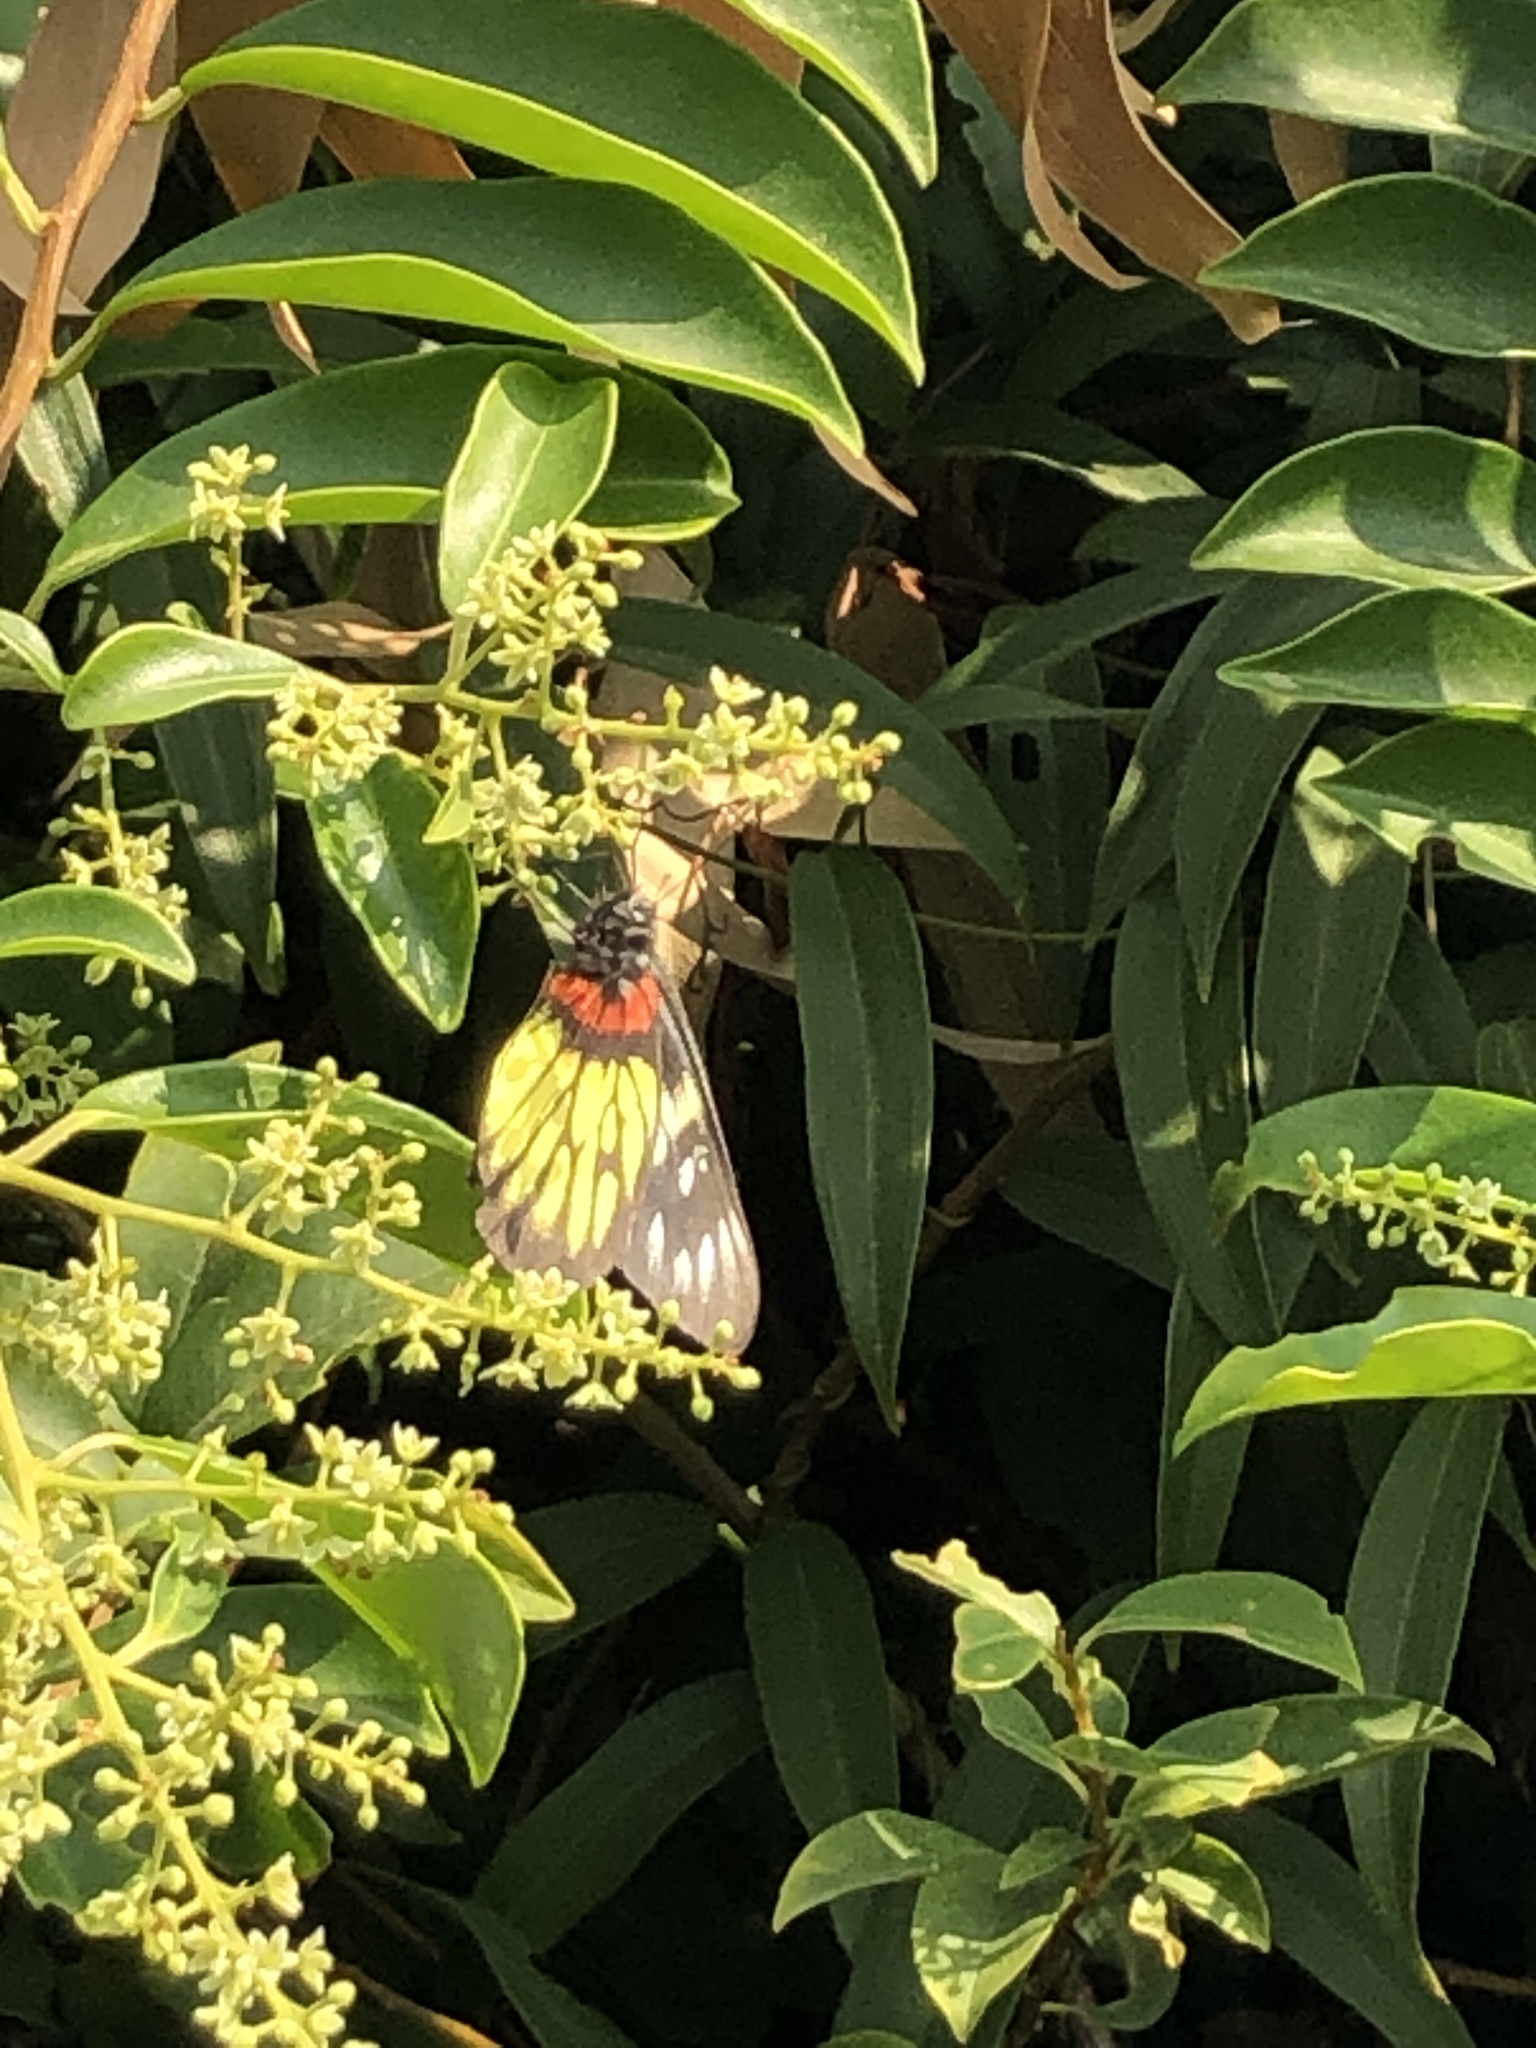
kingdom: Animalia
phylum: Arthropoda
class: Insecta
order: Lepidoptera
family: Pieridae
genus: Delias
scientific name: Delias pasithoe
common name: Red-base jezebel
